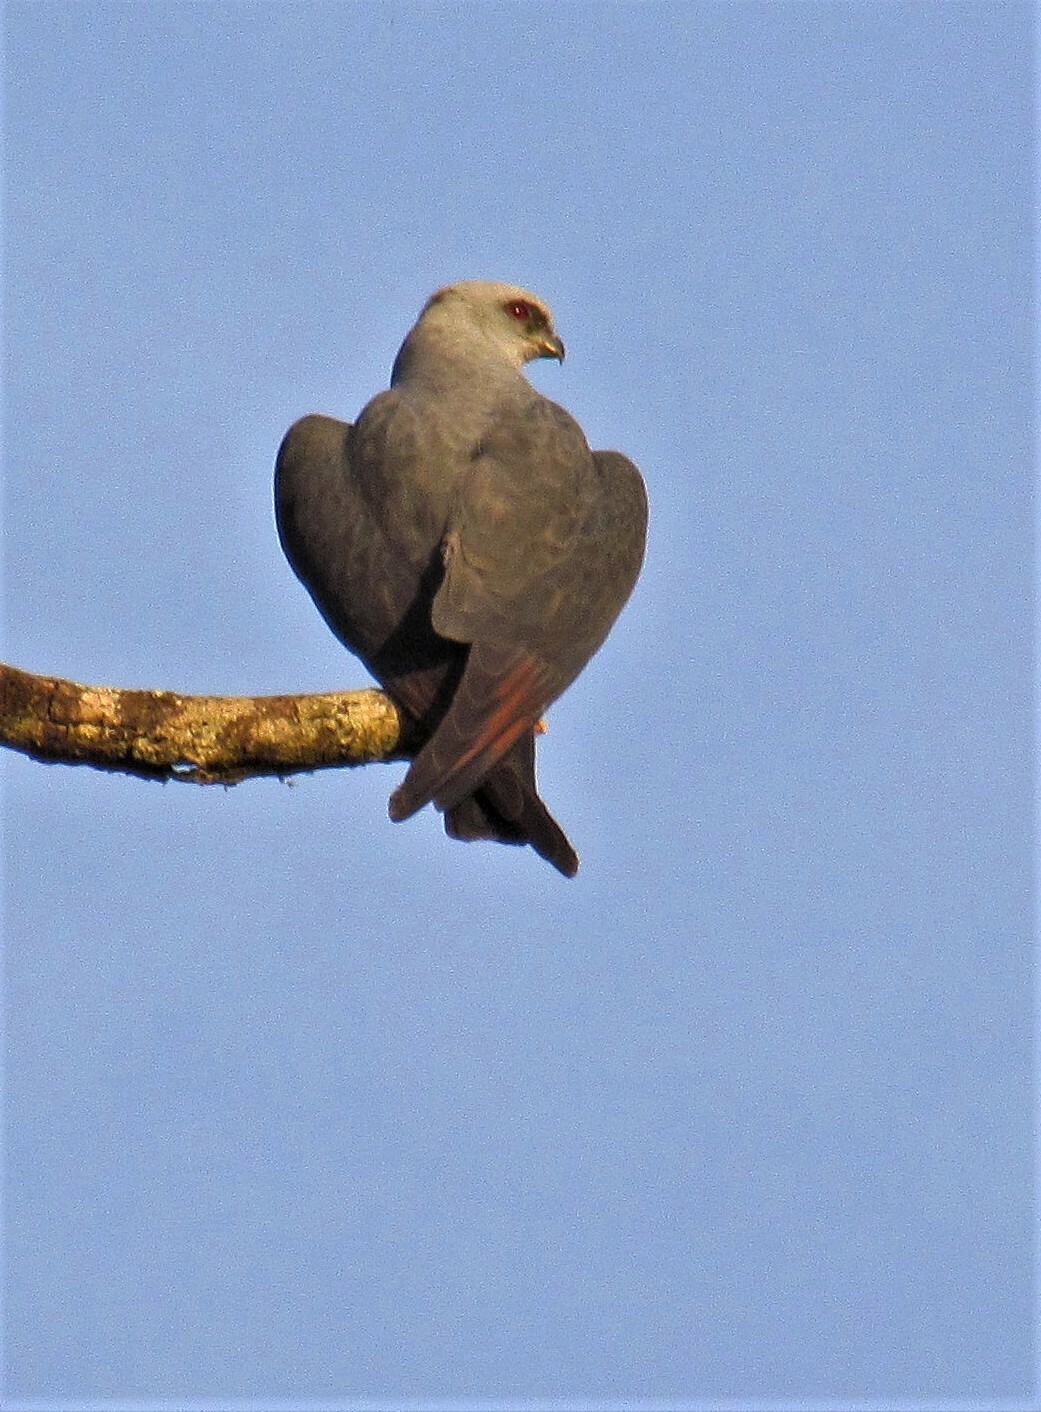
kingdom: Animalia
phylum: Chordata
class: Aves
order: Accipitriformes
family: Accipitridae
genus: Ictinia
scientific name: Ictinia plumbea
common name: Plumbeous kite
